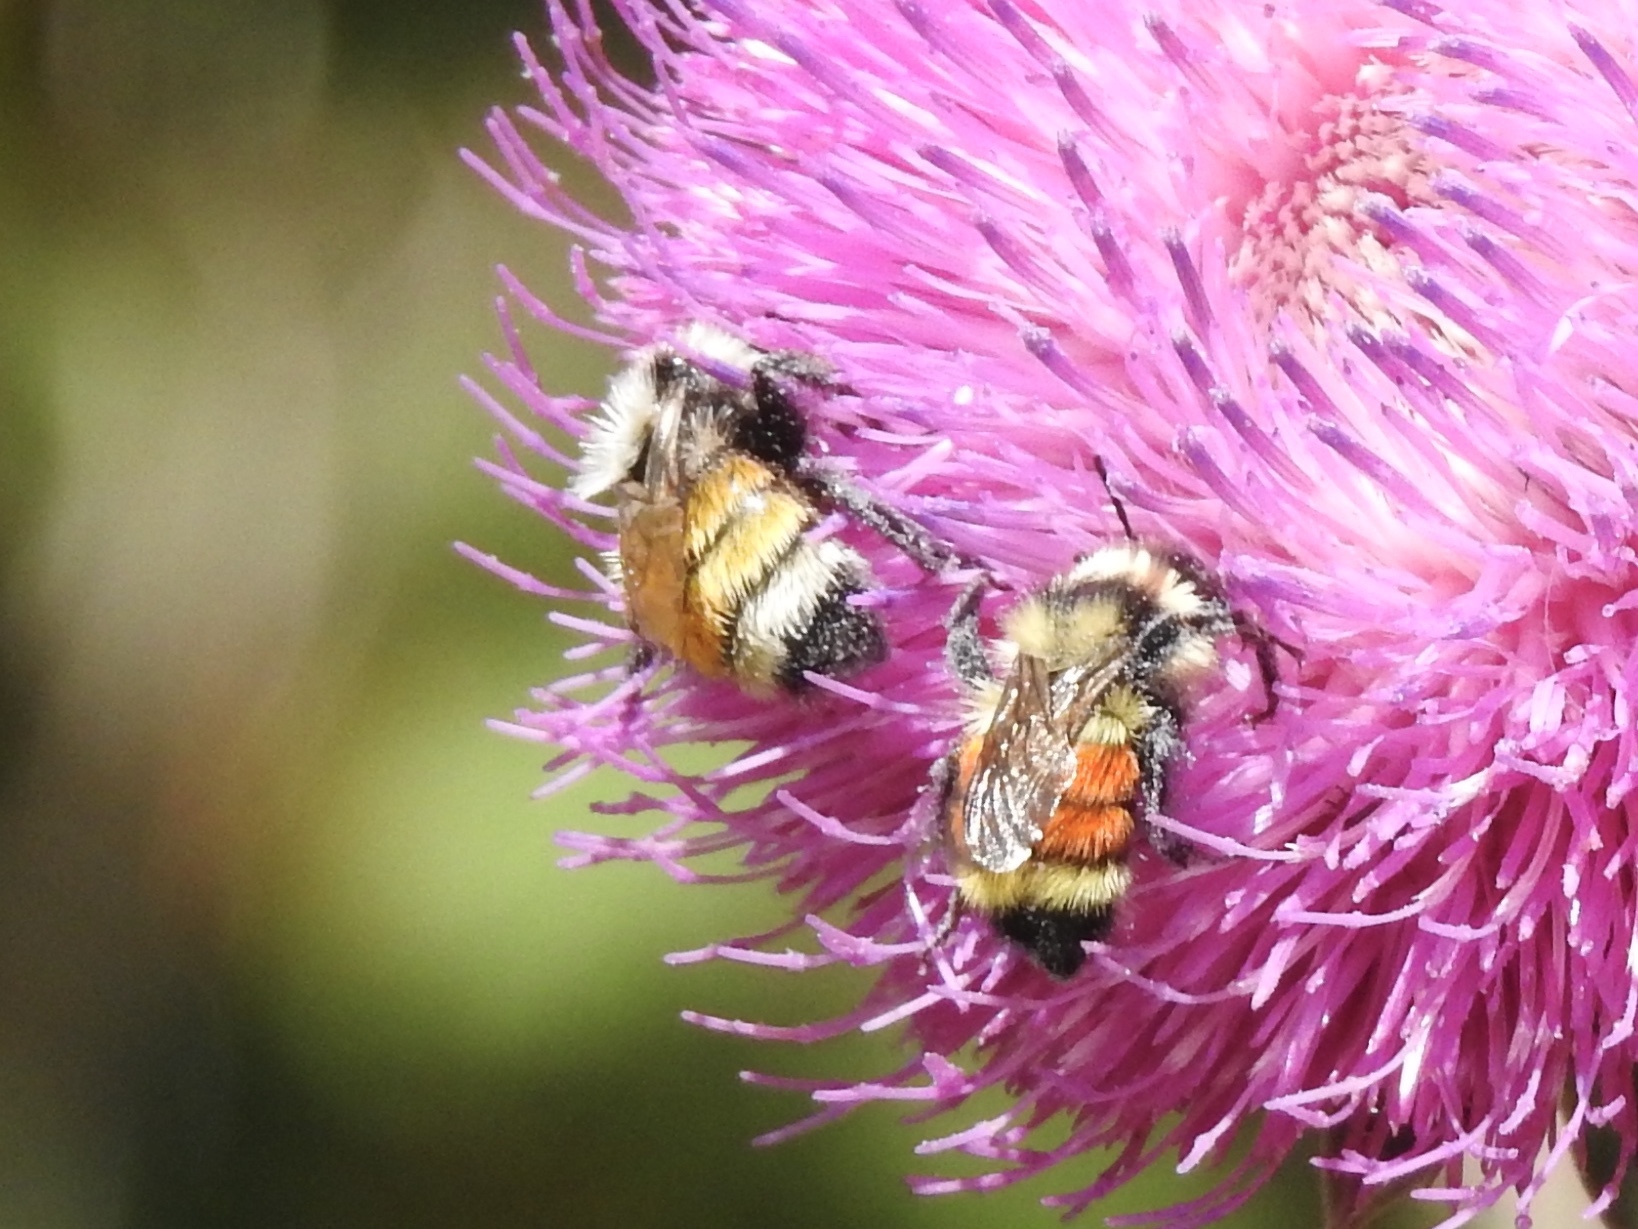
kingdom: Animalia
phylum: Arthropoda
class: Insecta
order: Hymenoptera
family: Apidae
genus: Bombus
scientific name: Bombus huntii
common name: Hunt bumble bee
